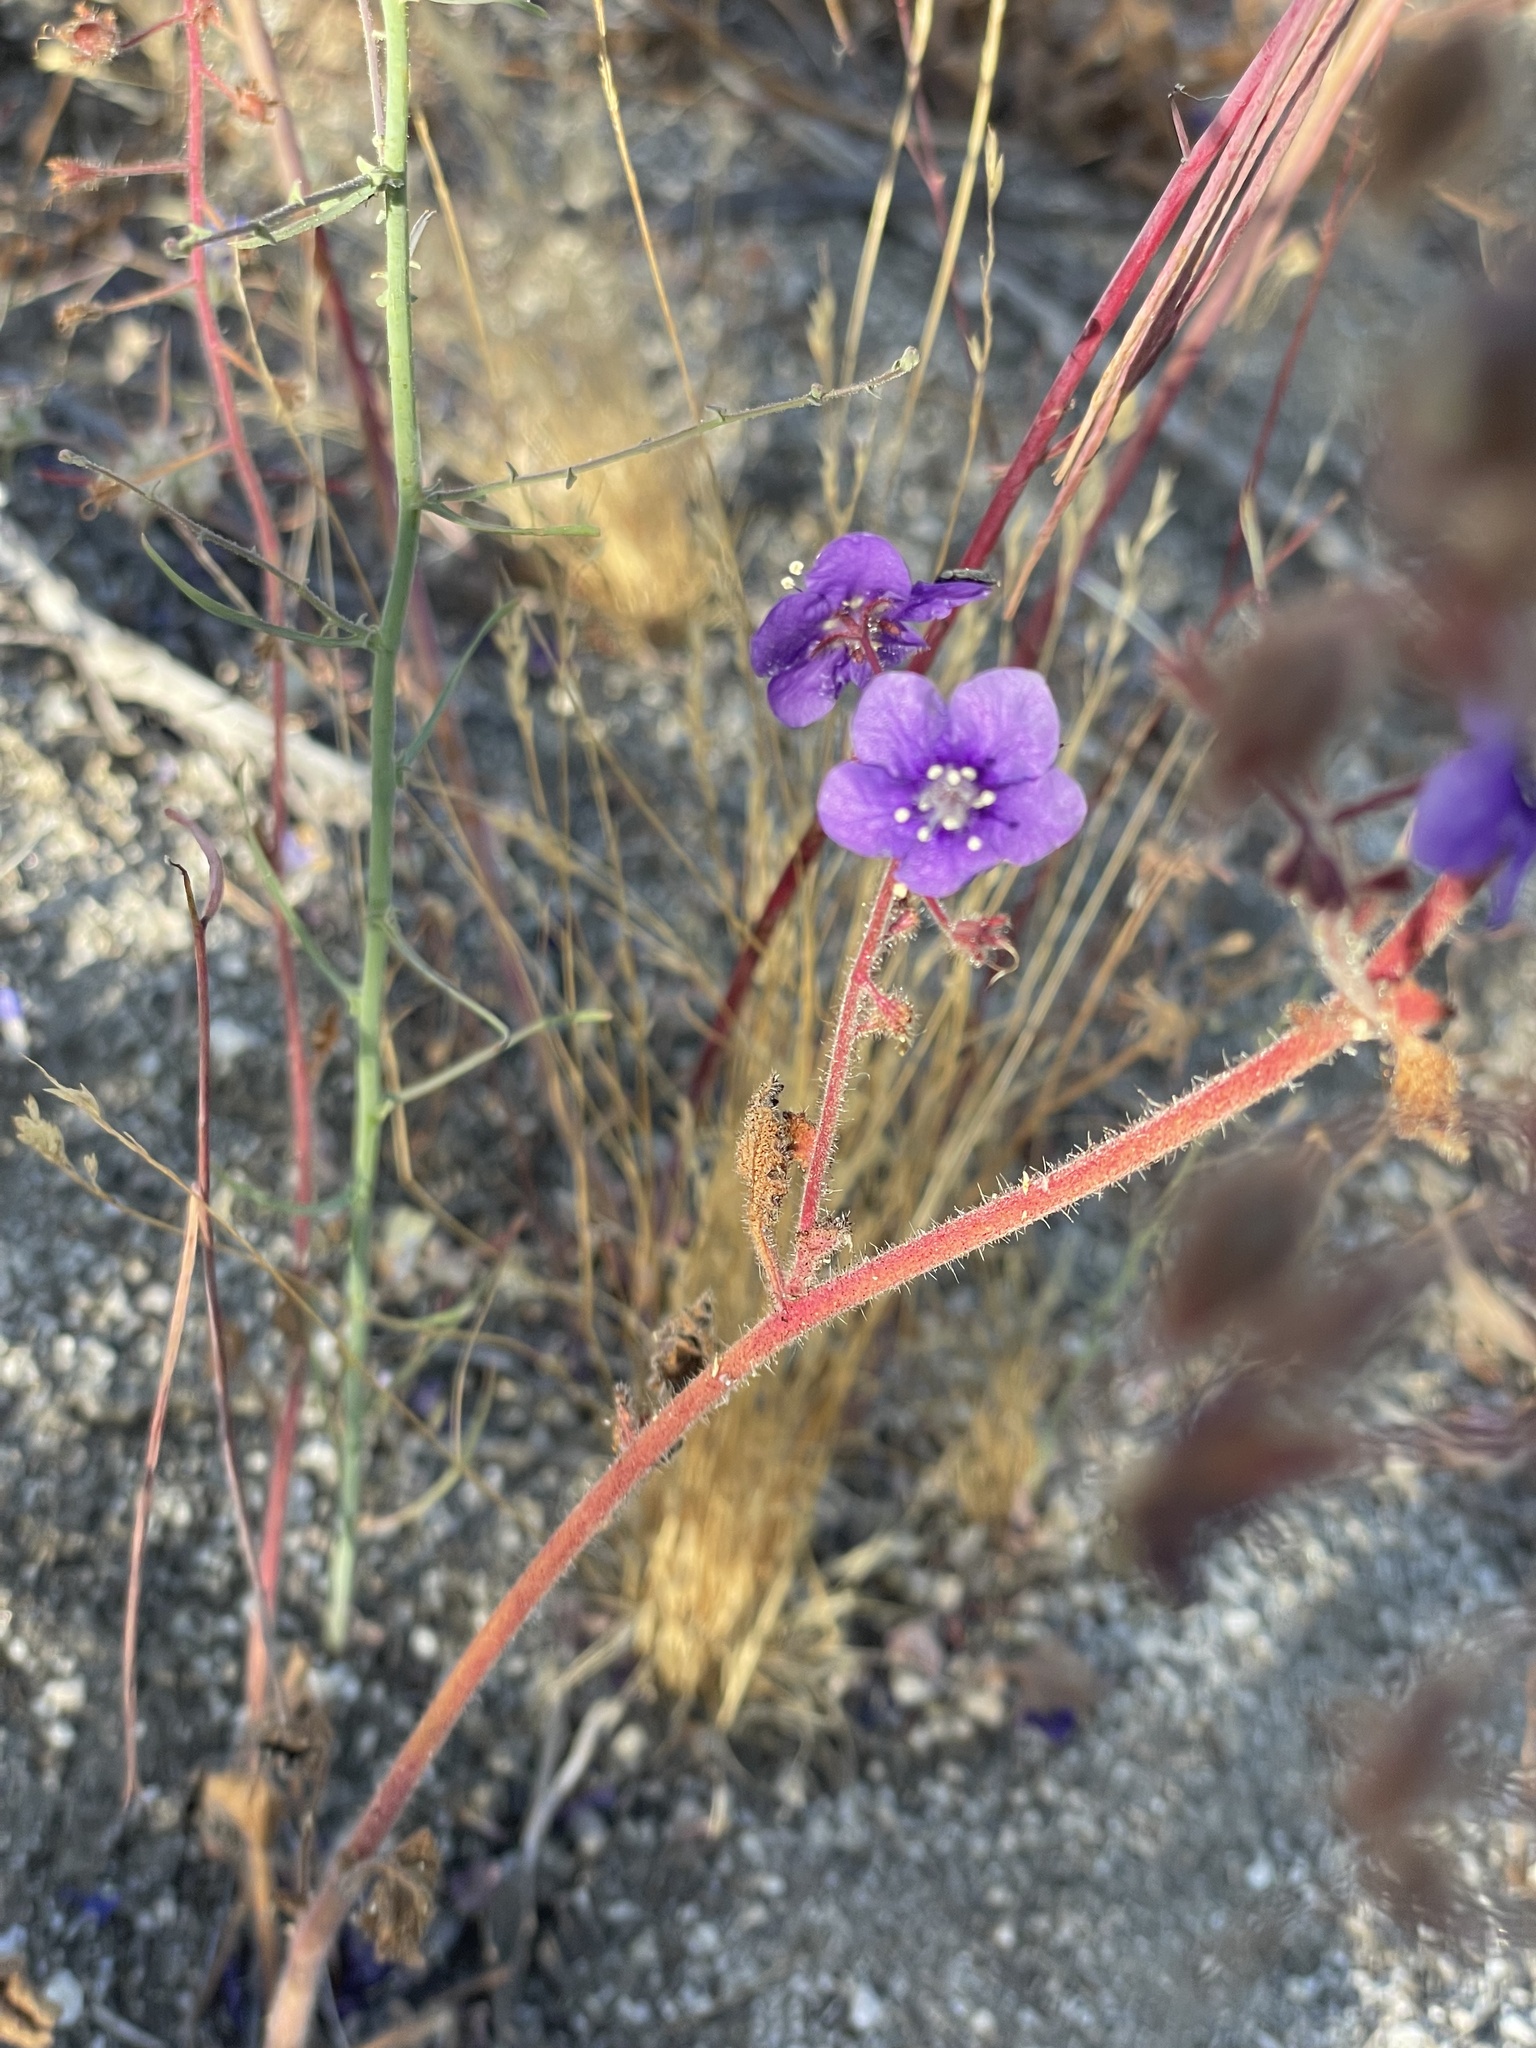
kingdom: Plantae
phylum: Tracheophyta
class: Magnoliopsida
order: Boraginales
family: Hydrophyllaceae
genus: Phacelia
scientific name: Phacelia parryi
